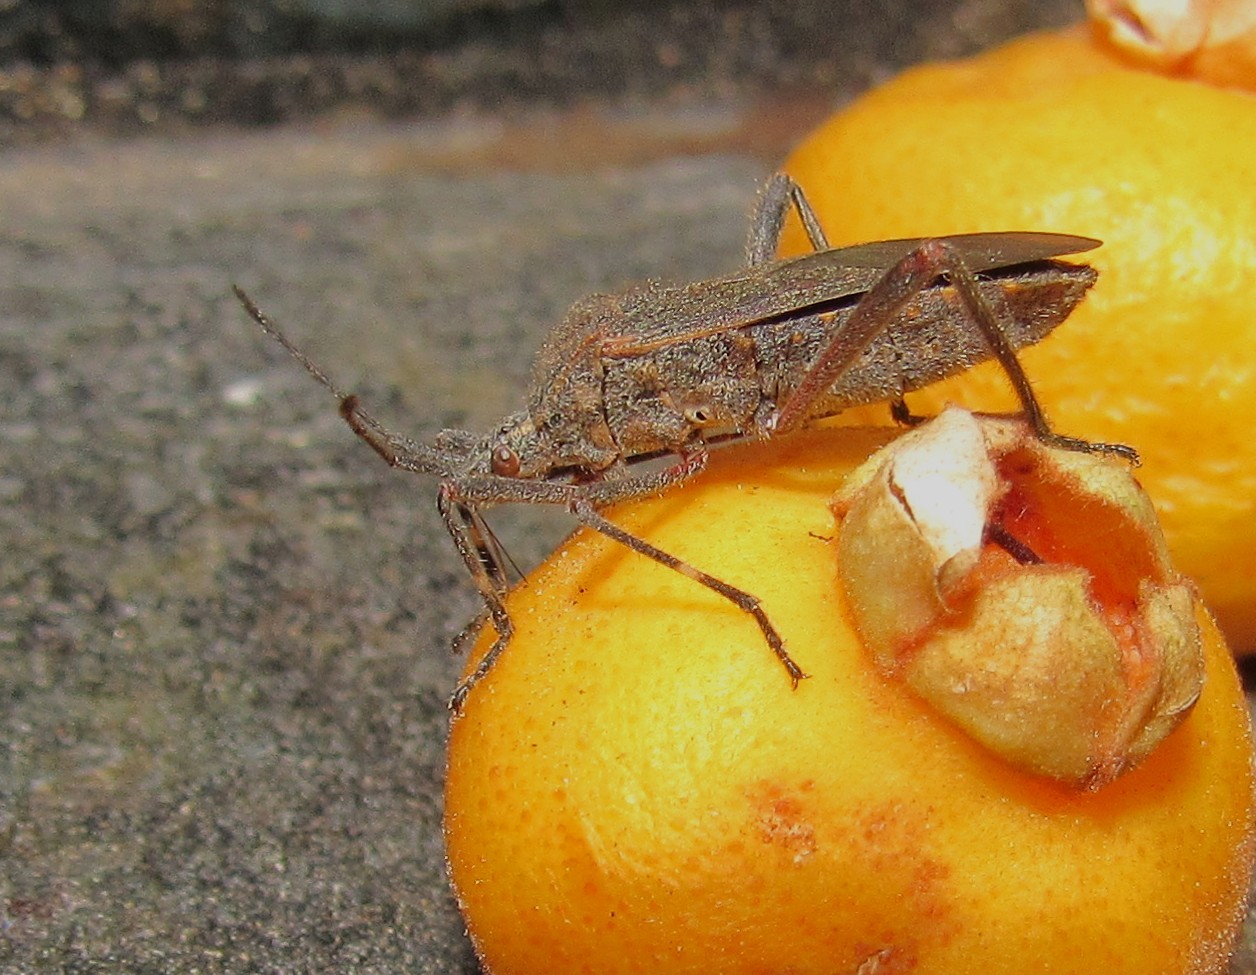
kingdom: Animalia
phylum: Arthropoda
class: Insecta
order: Hemiptera
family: Coreidae
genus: Phthiacnemia
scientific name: Phthiacnemia picta
